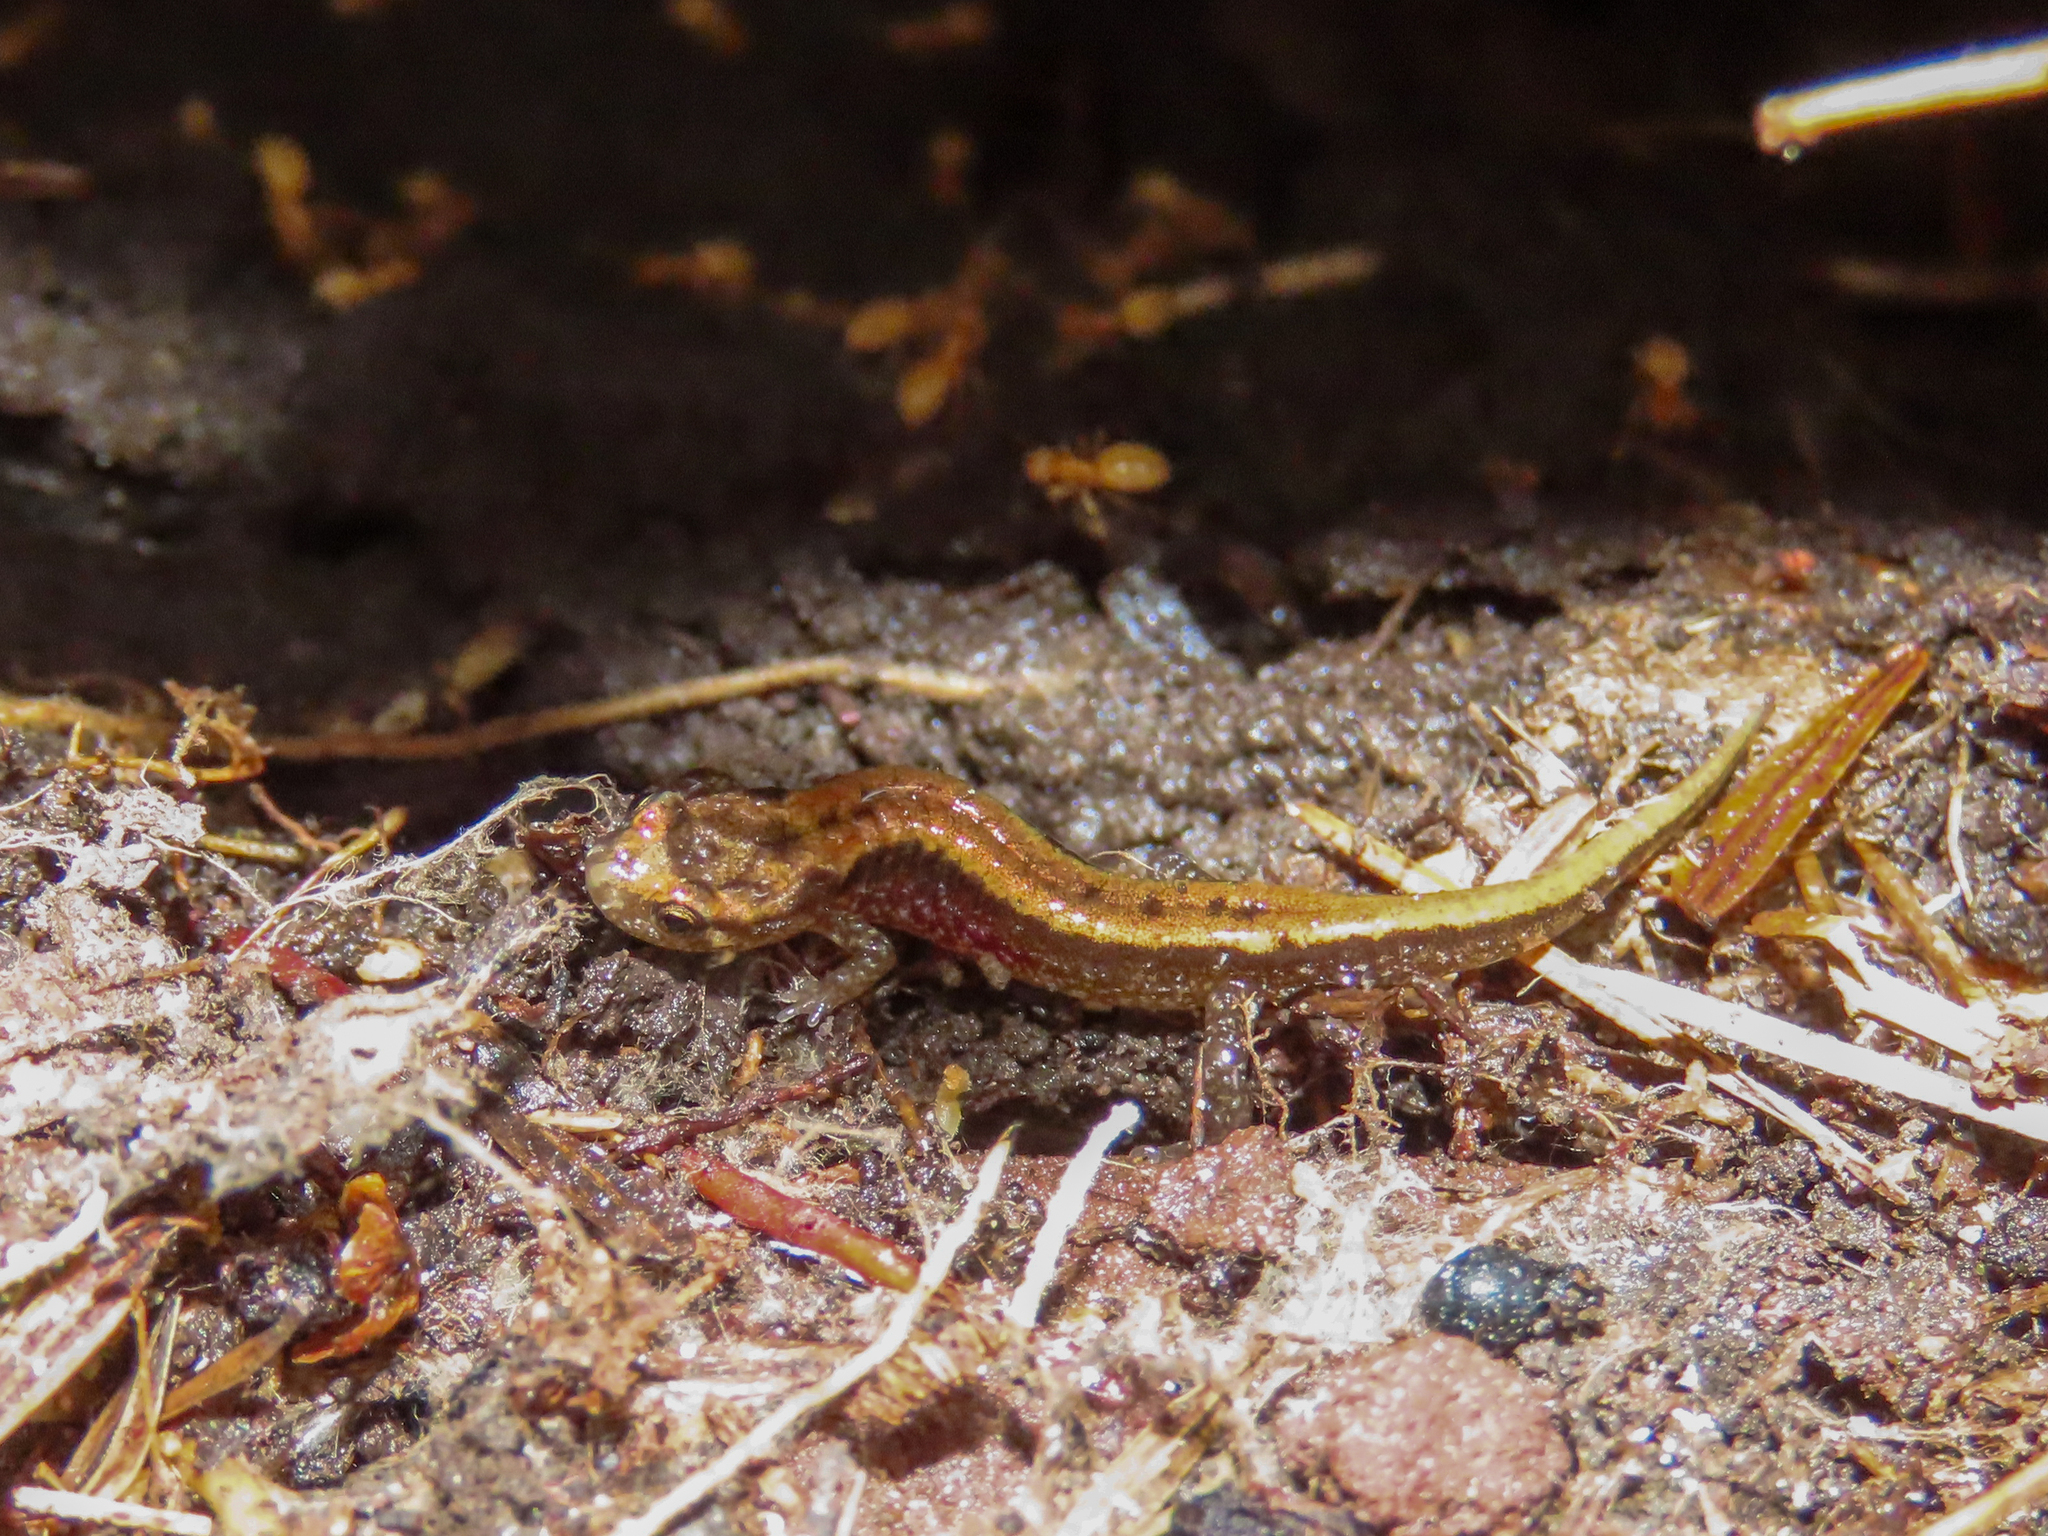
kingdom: Animalia
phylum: Chordata
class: Amphibia
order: Caudata
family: Plethodontidae
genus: Desmognathus
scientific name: Desmognathus ochrophaeus
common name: Allegheny mountain dusky salamander
